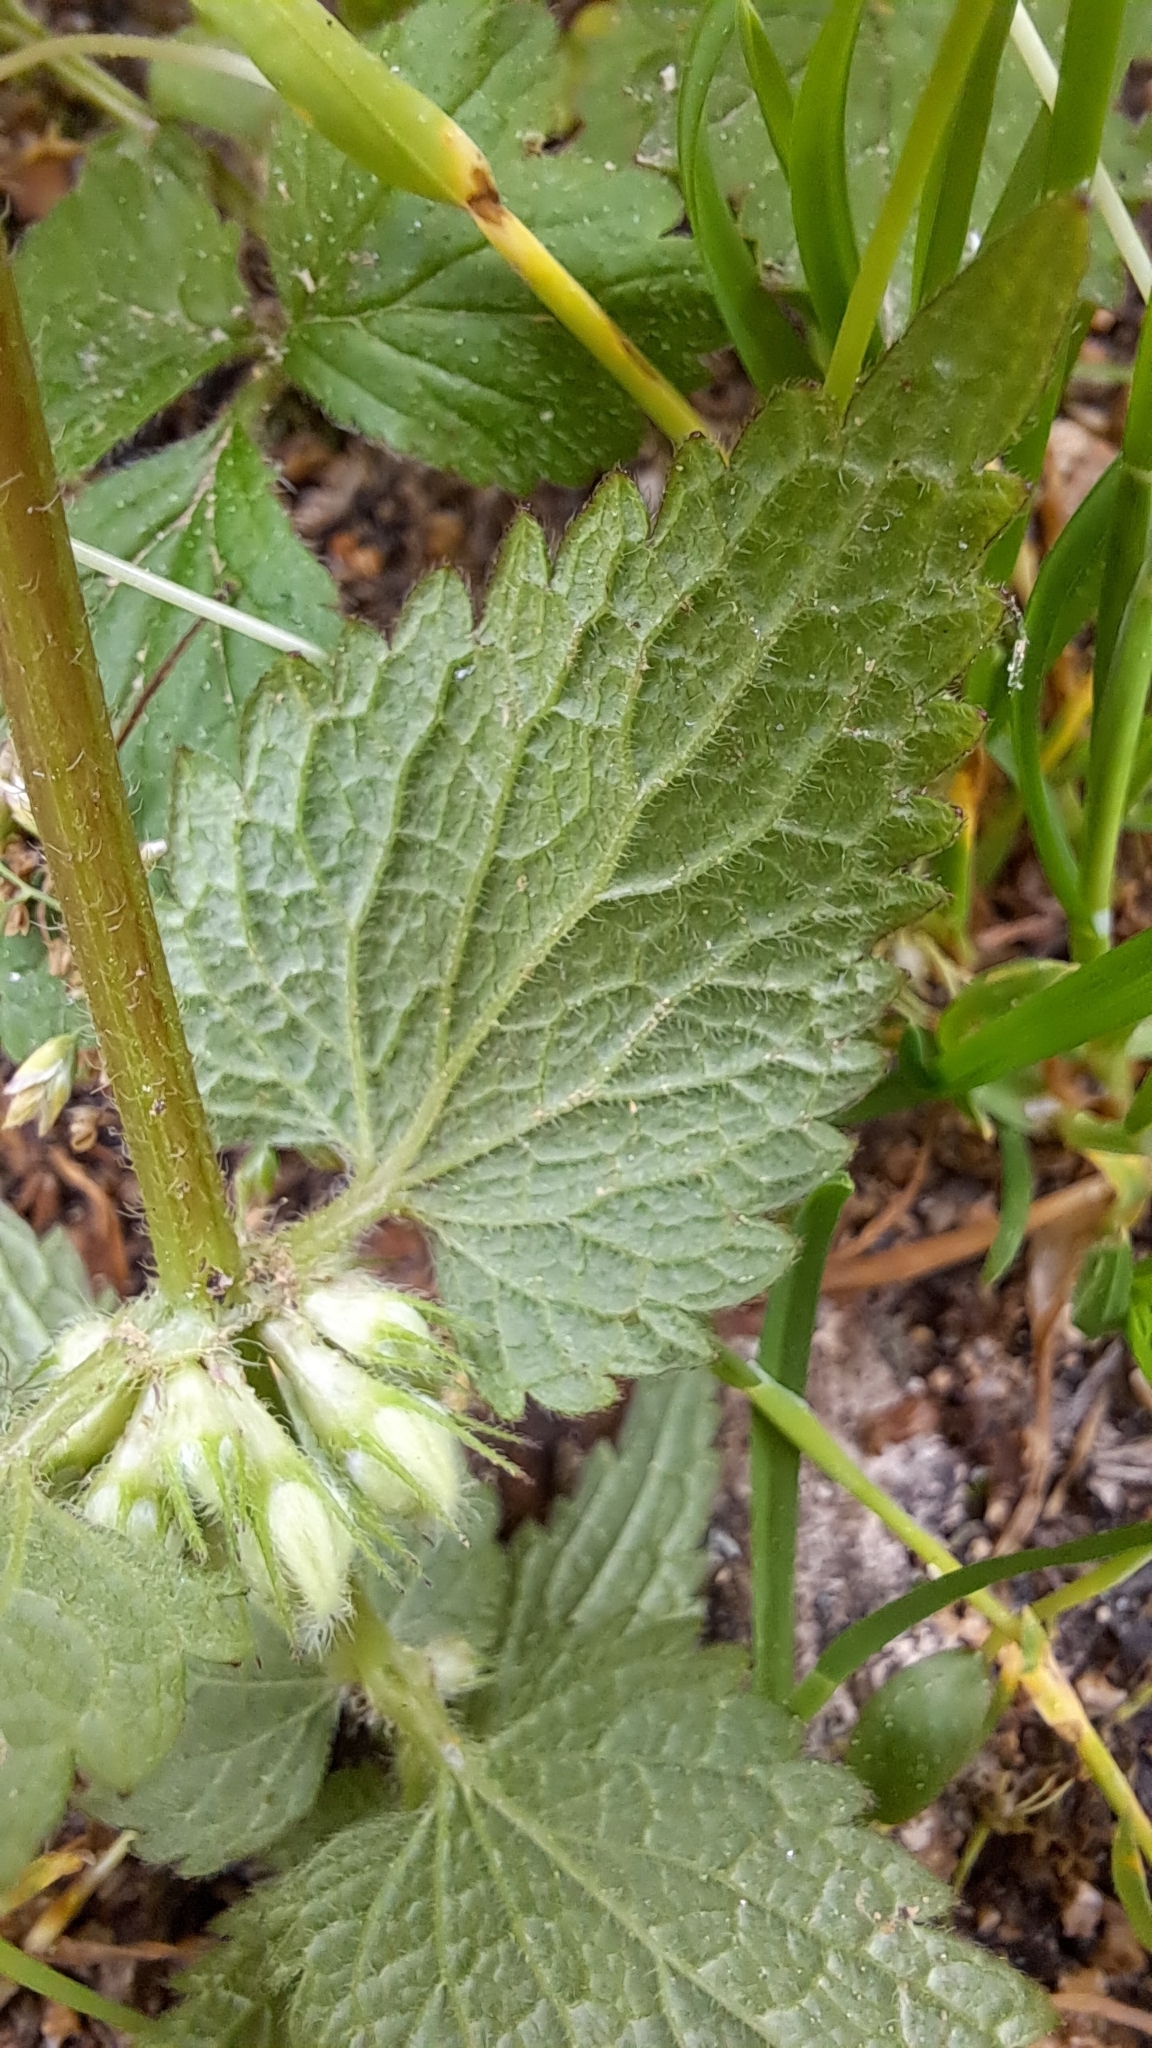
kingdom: Plantae
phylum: Tracheophyta
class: Magnoliopsida
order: Lamiales
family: Lamiaceae
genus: Lamium
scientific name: Lamium album
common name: White dead-nettle
